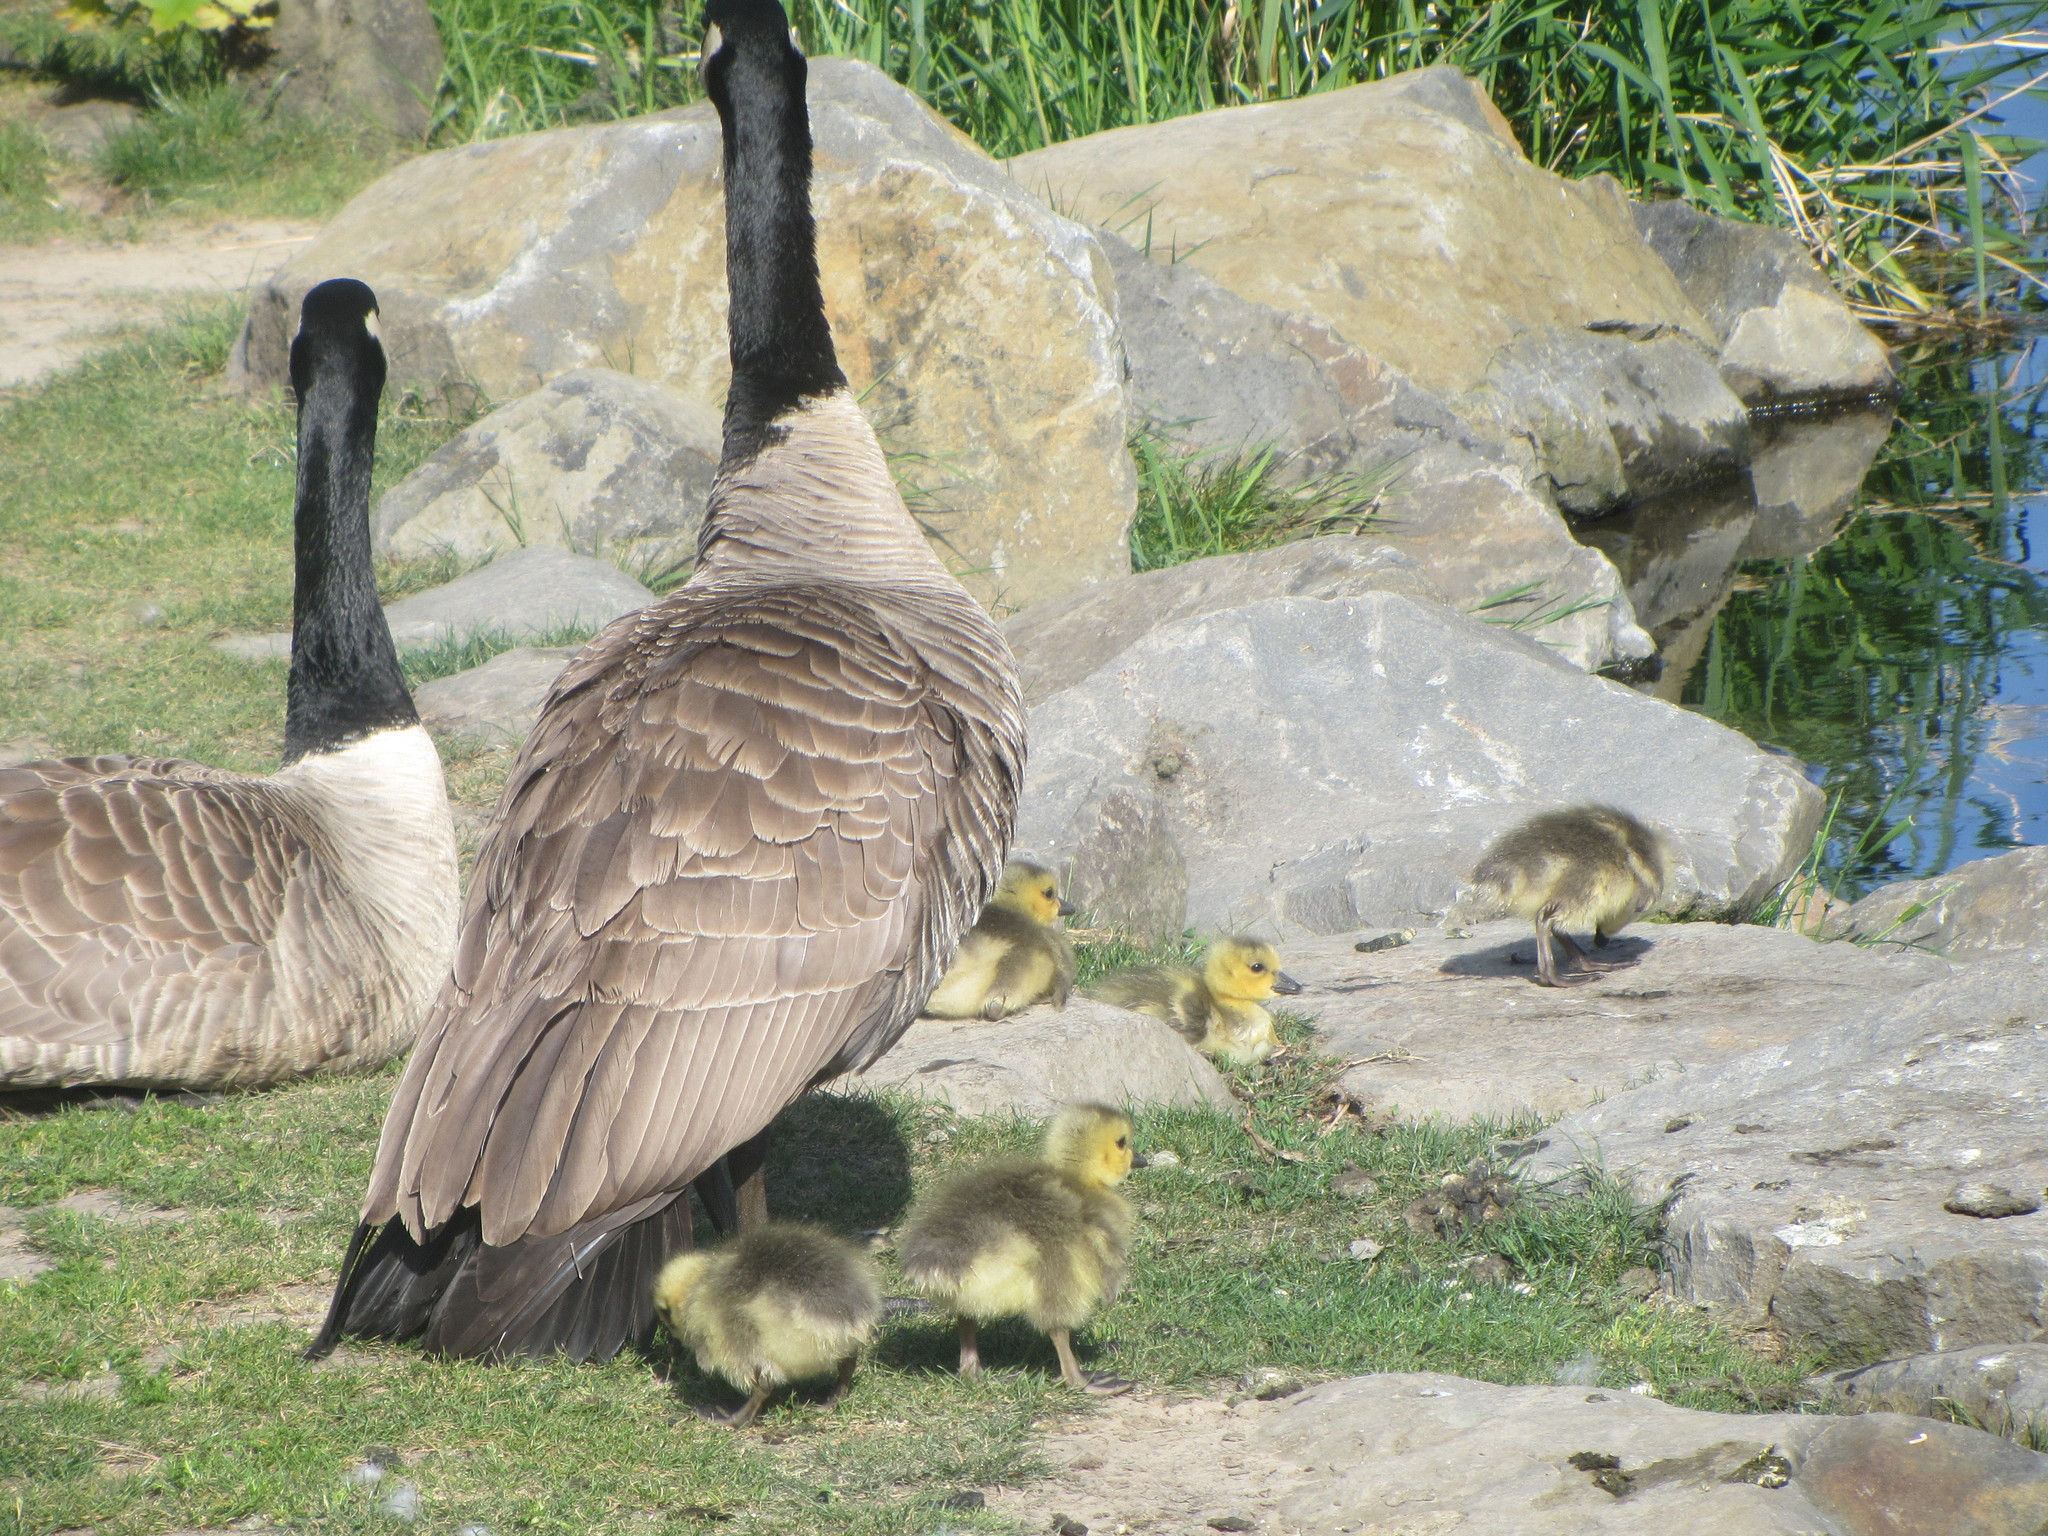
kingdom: Animalia
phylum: Chordata
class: Aves
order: Anseriformes
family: Anatidae
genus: Branta
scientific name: Branta canadensis
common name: Canada goose
